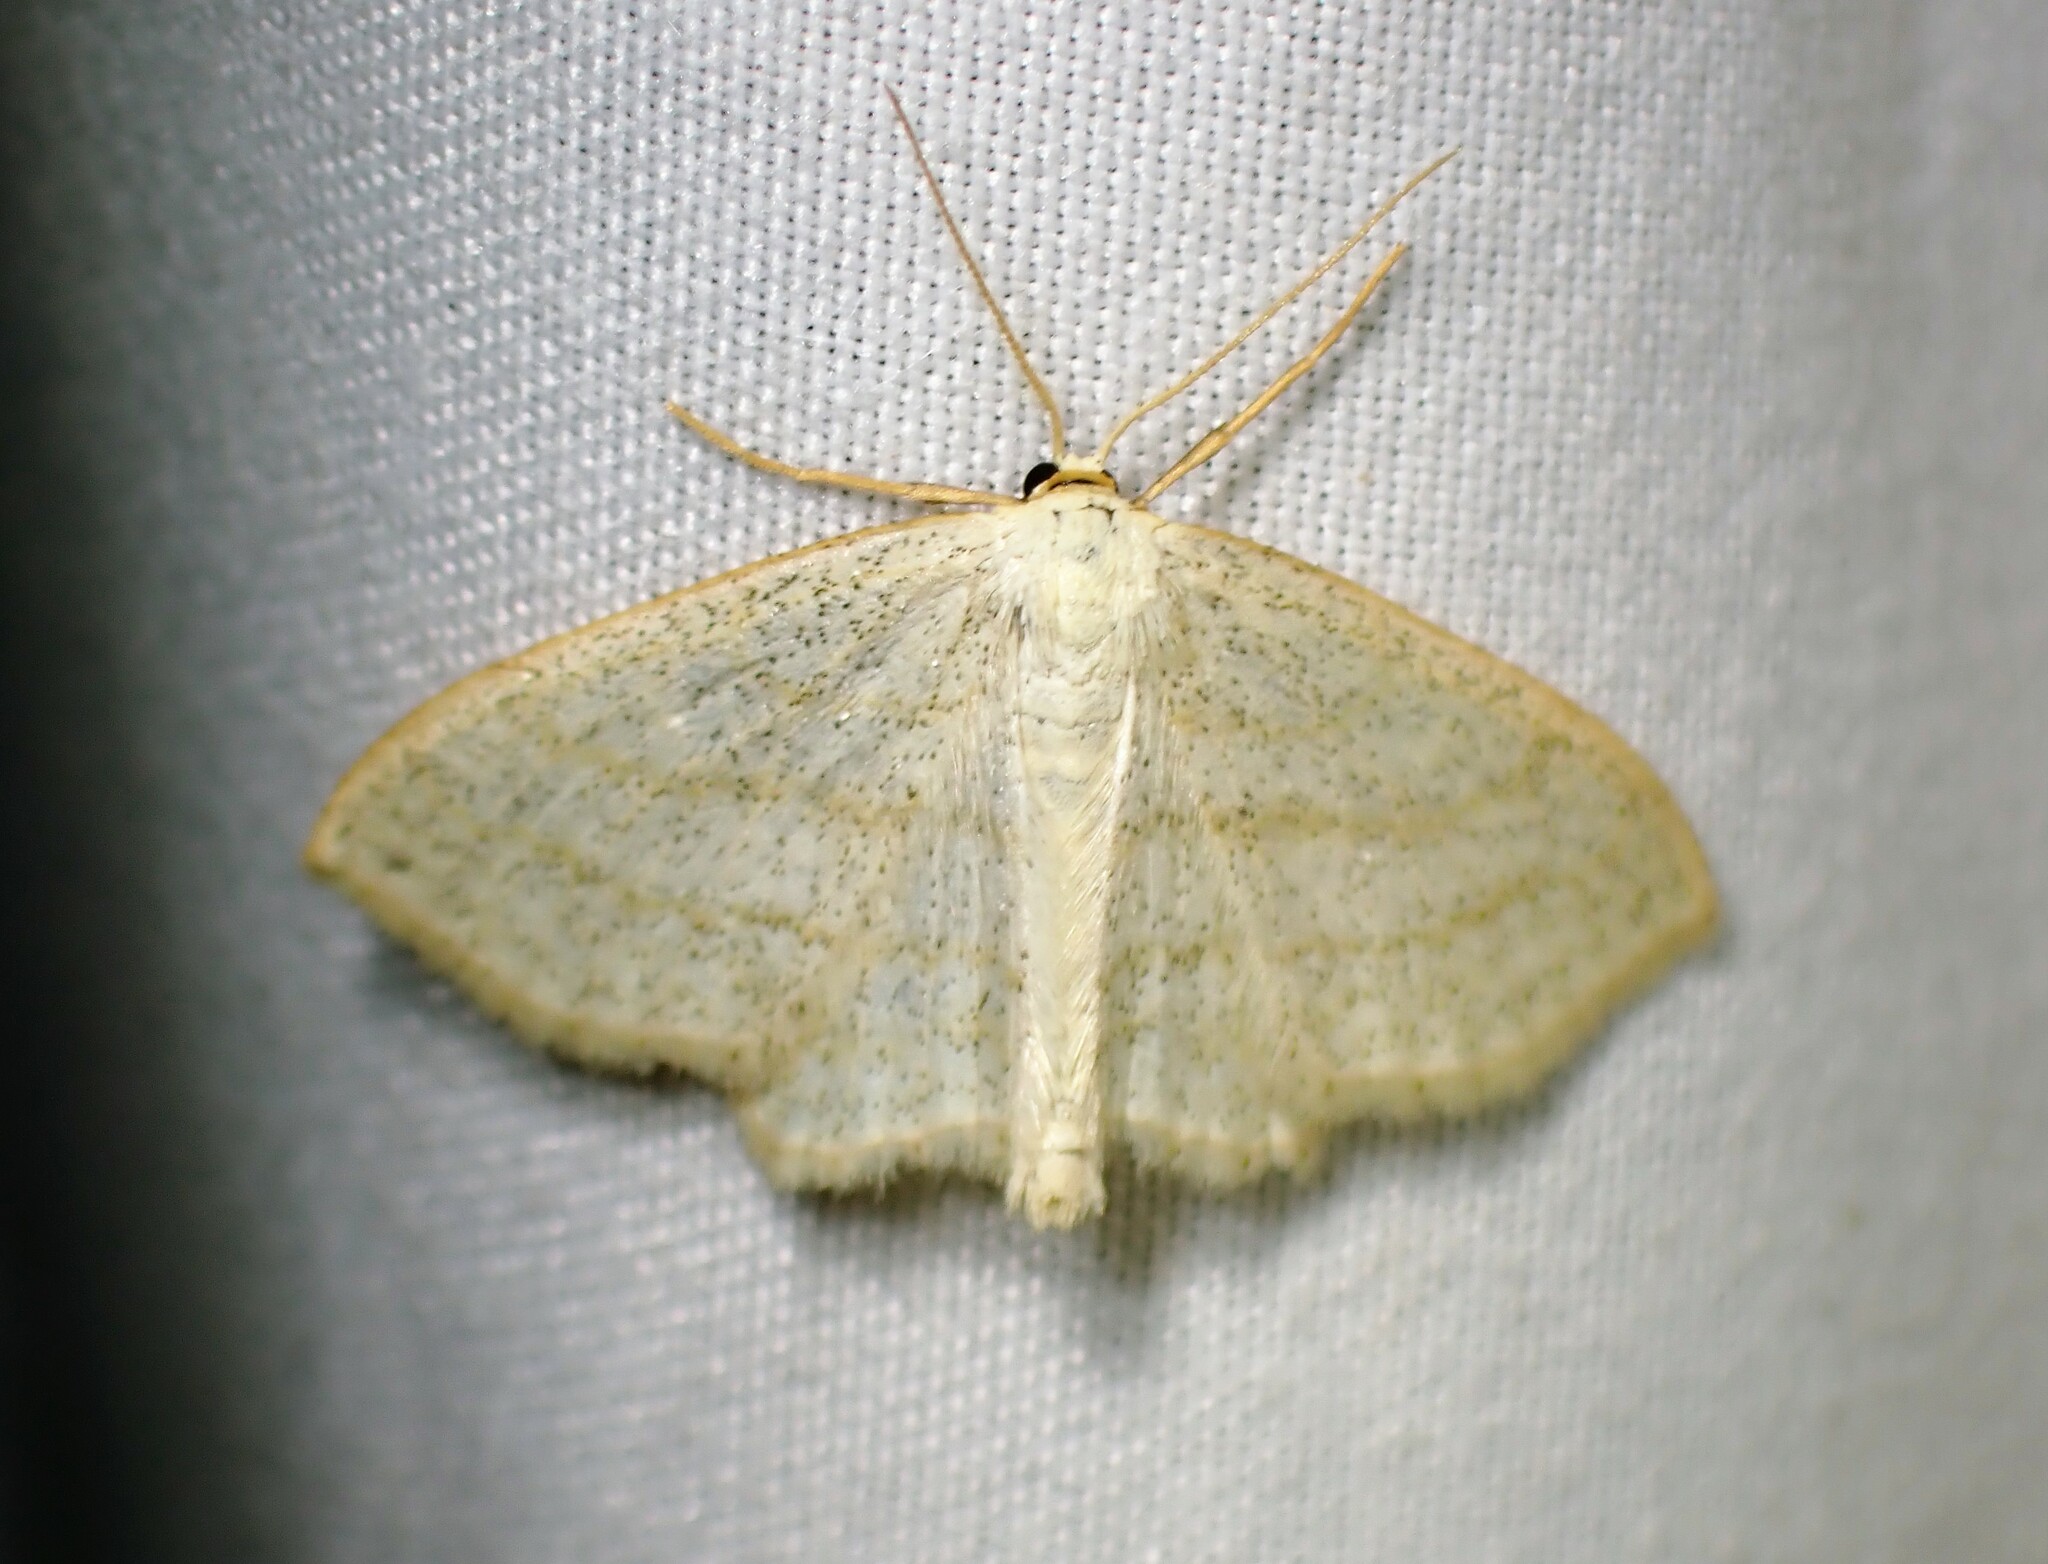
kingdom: Animalia
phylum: Arthropoda
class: Insecta
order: Lepidoptera
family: Geometridae
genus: Scopula
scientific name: Scopula quadrilineata
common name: Four-lined wave moth
